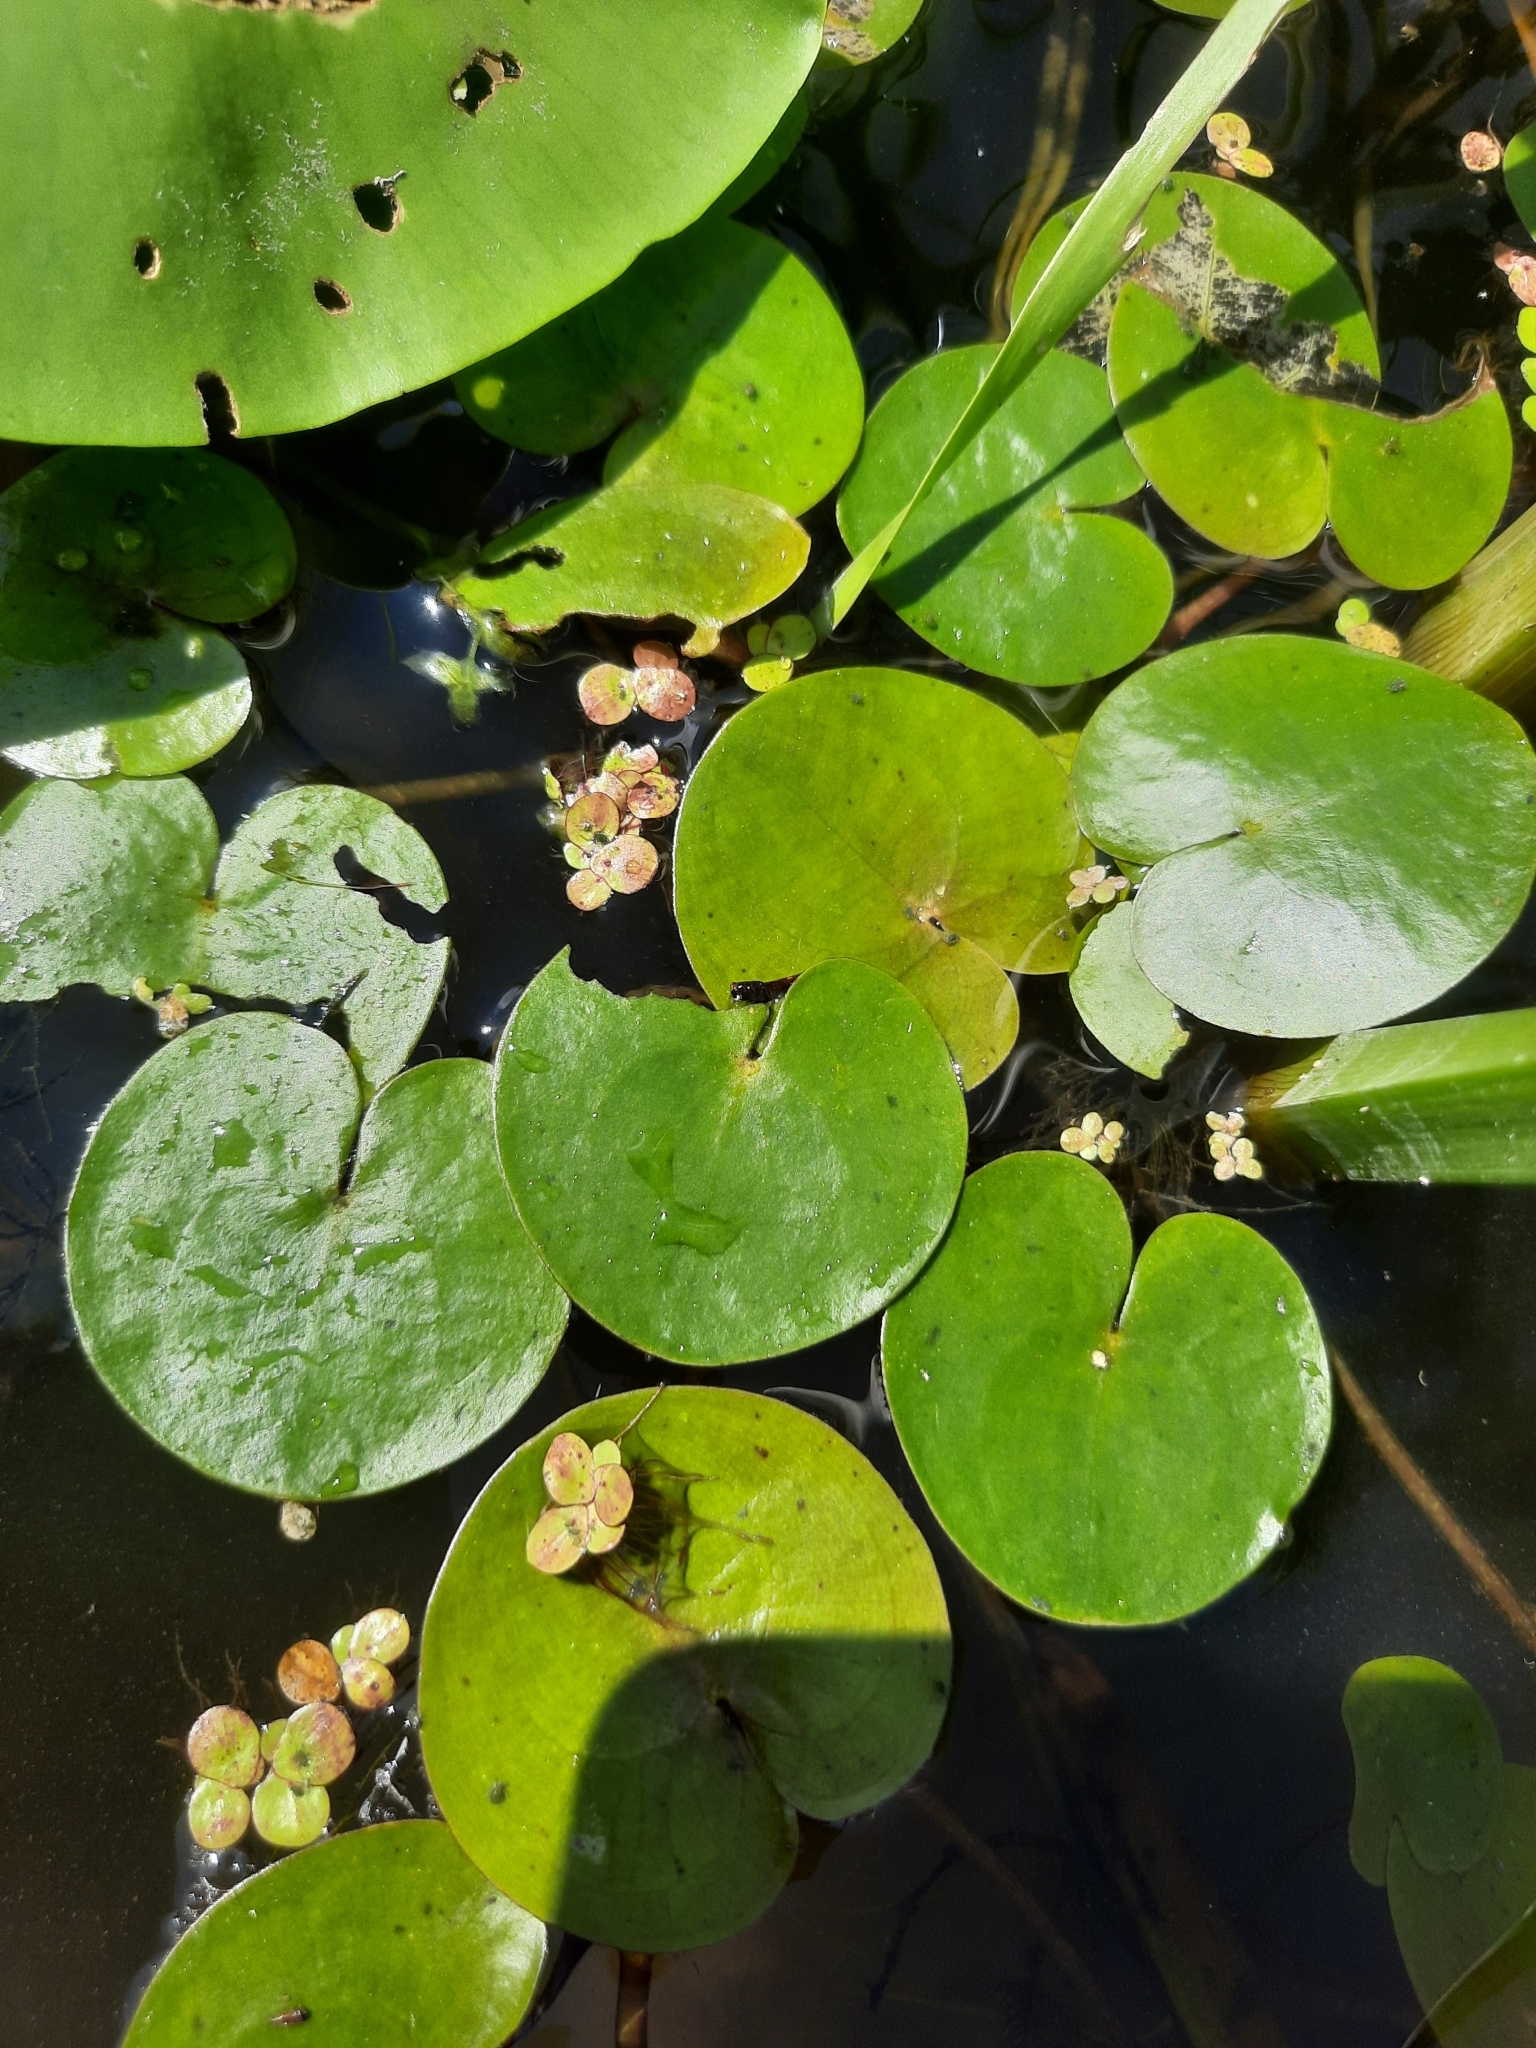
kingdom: Plantae
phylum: Tracheophyta
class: Liliopsida
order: Alismatales
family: Hydrocharitaceae
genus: Hydrocharis
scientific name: Hydrocharis morsus-ranae
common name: Frogbit
